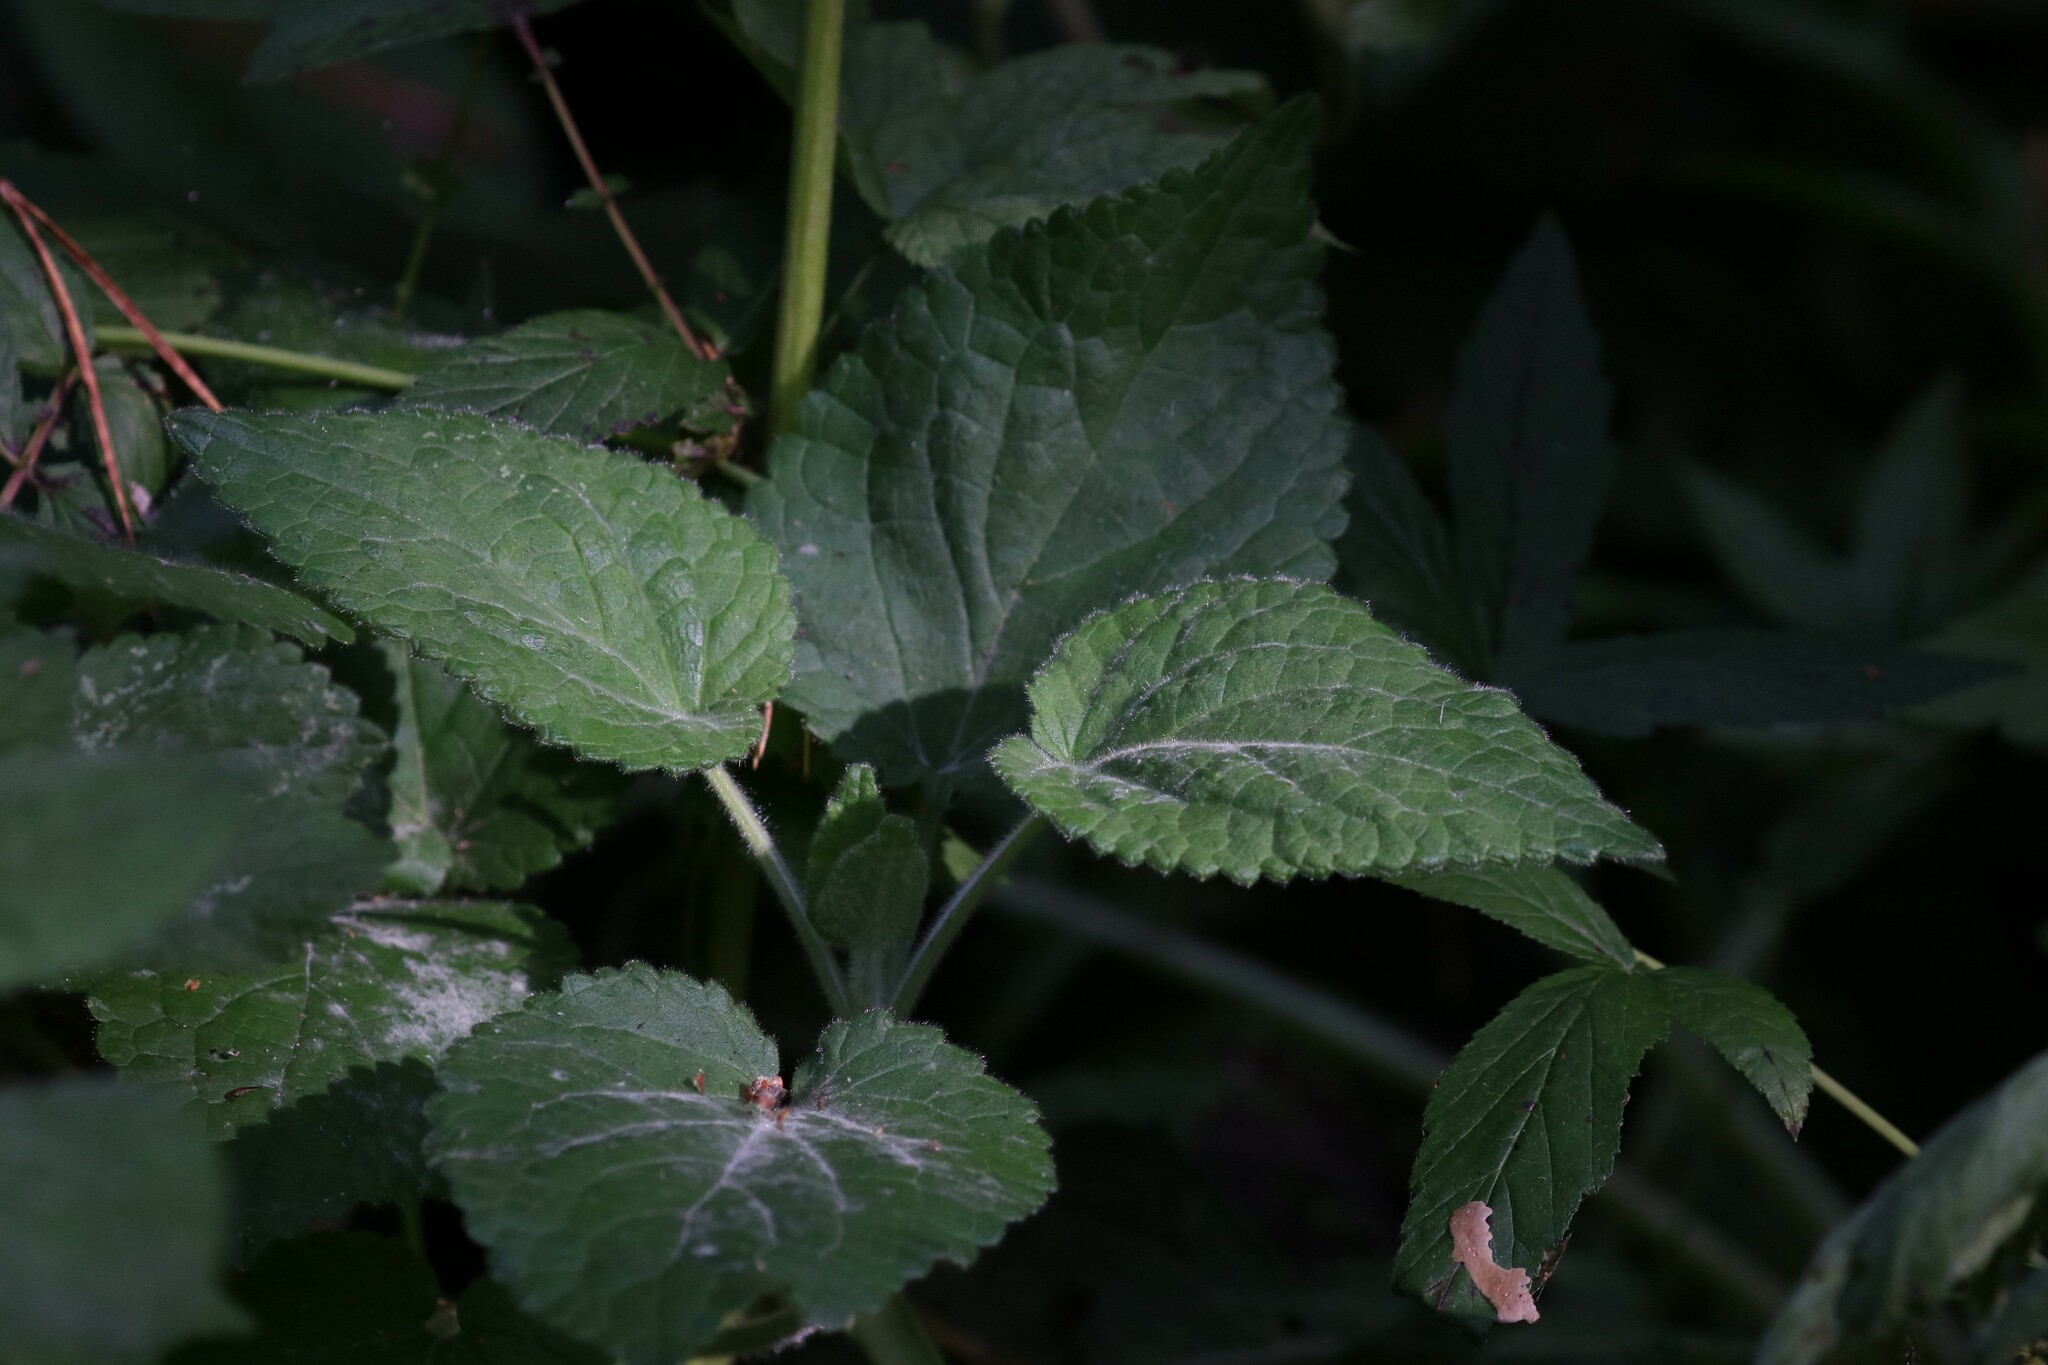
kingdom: Plantae
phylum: Tracheophyta
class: Magnoliopsida
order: Lamiales
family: Lamiaceae
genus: Stachys
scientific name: Stachys sylvatica
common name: Hedge woundwort
